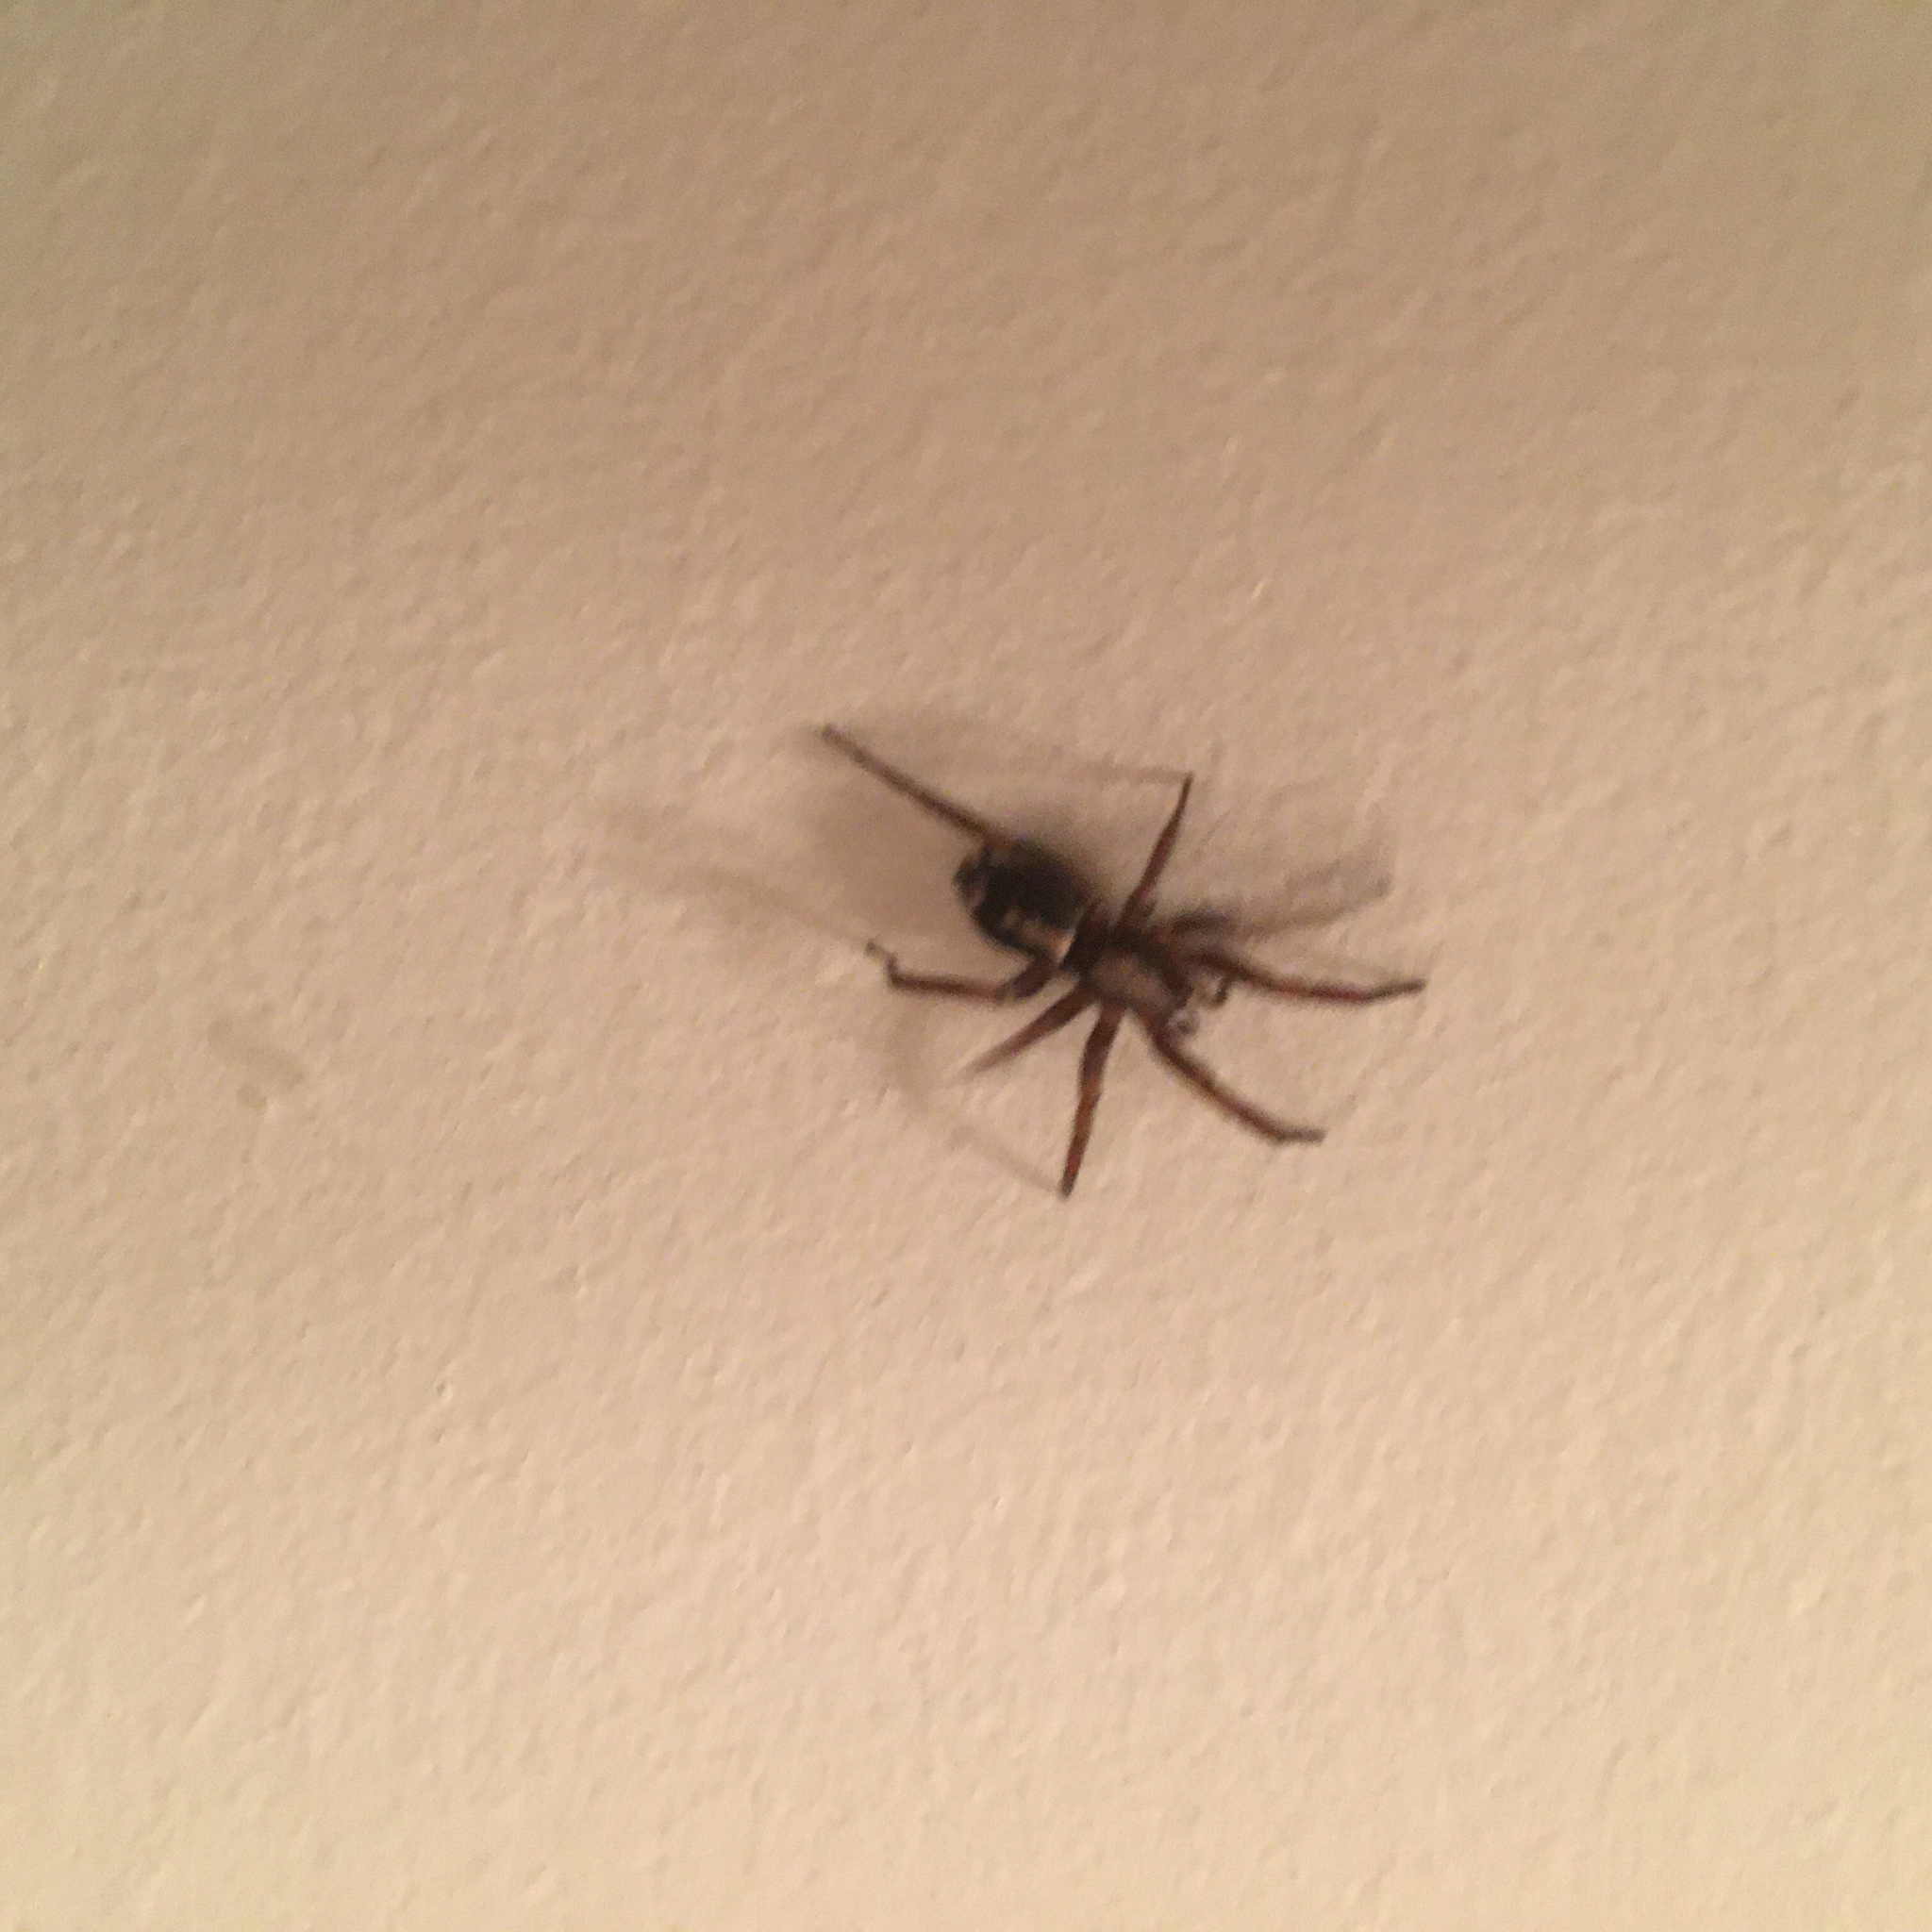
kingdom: Animalia
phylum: Arthropoda
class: Arachnida
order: Araneae
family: Gnaphosidae
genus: Herpyllus
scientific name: Herpyllus ecclesiasticus
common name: Eastern parson spider
